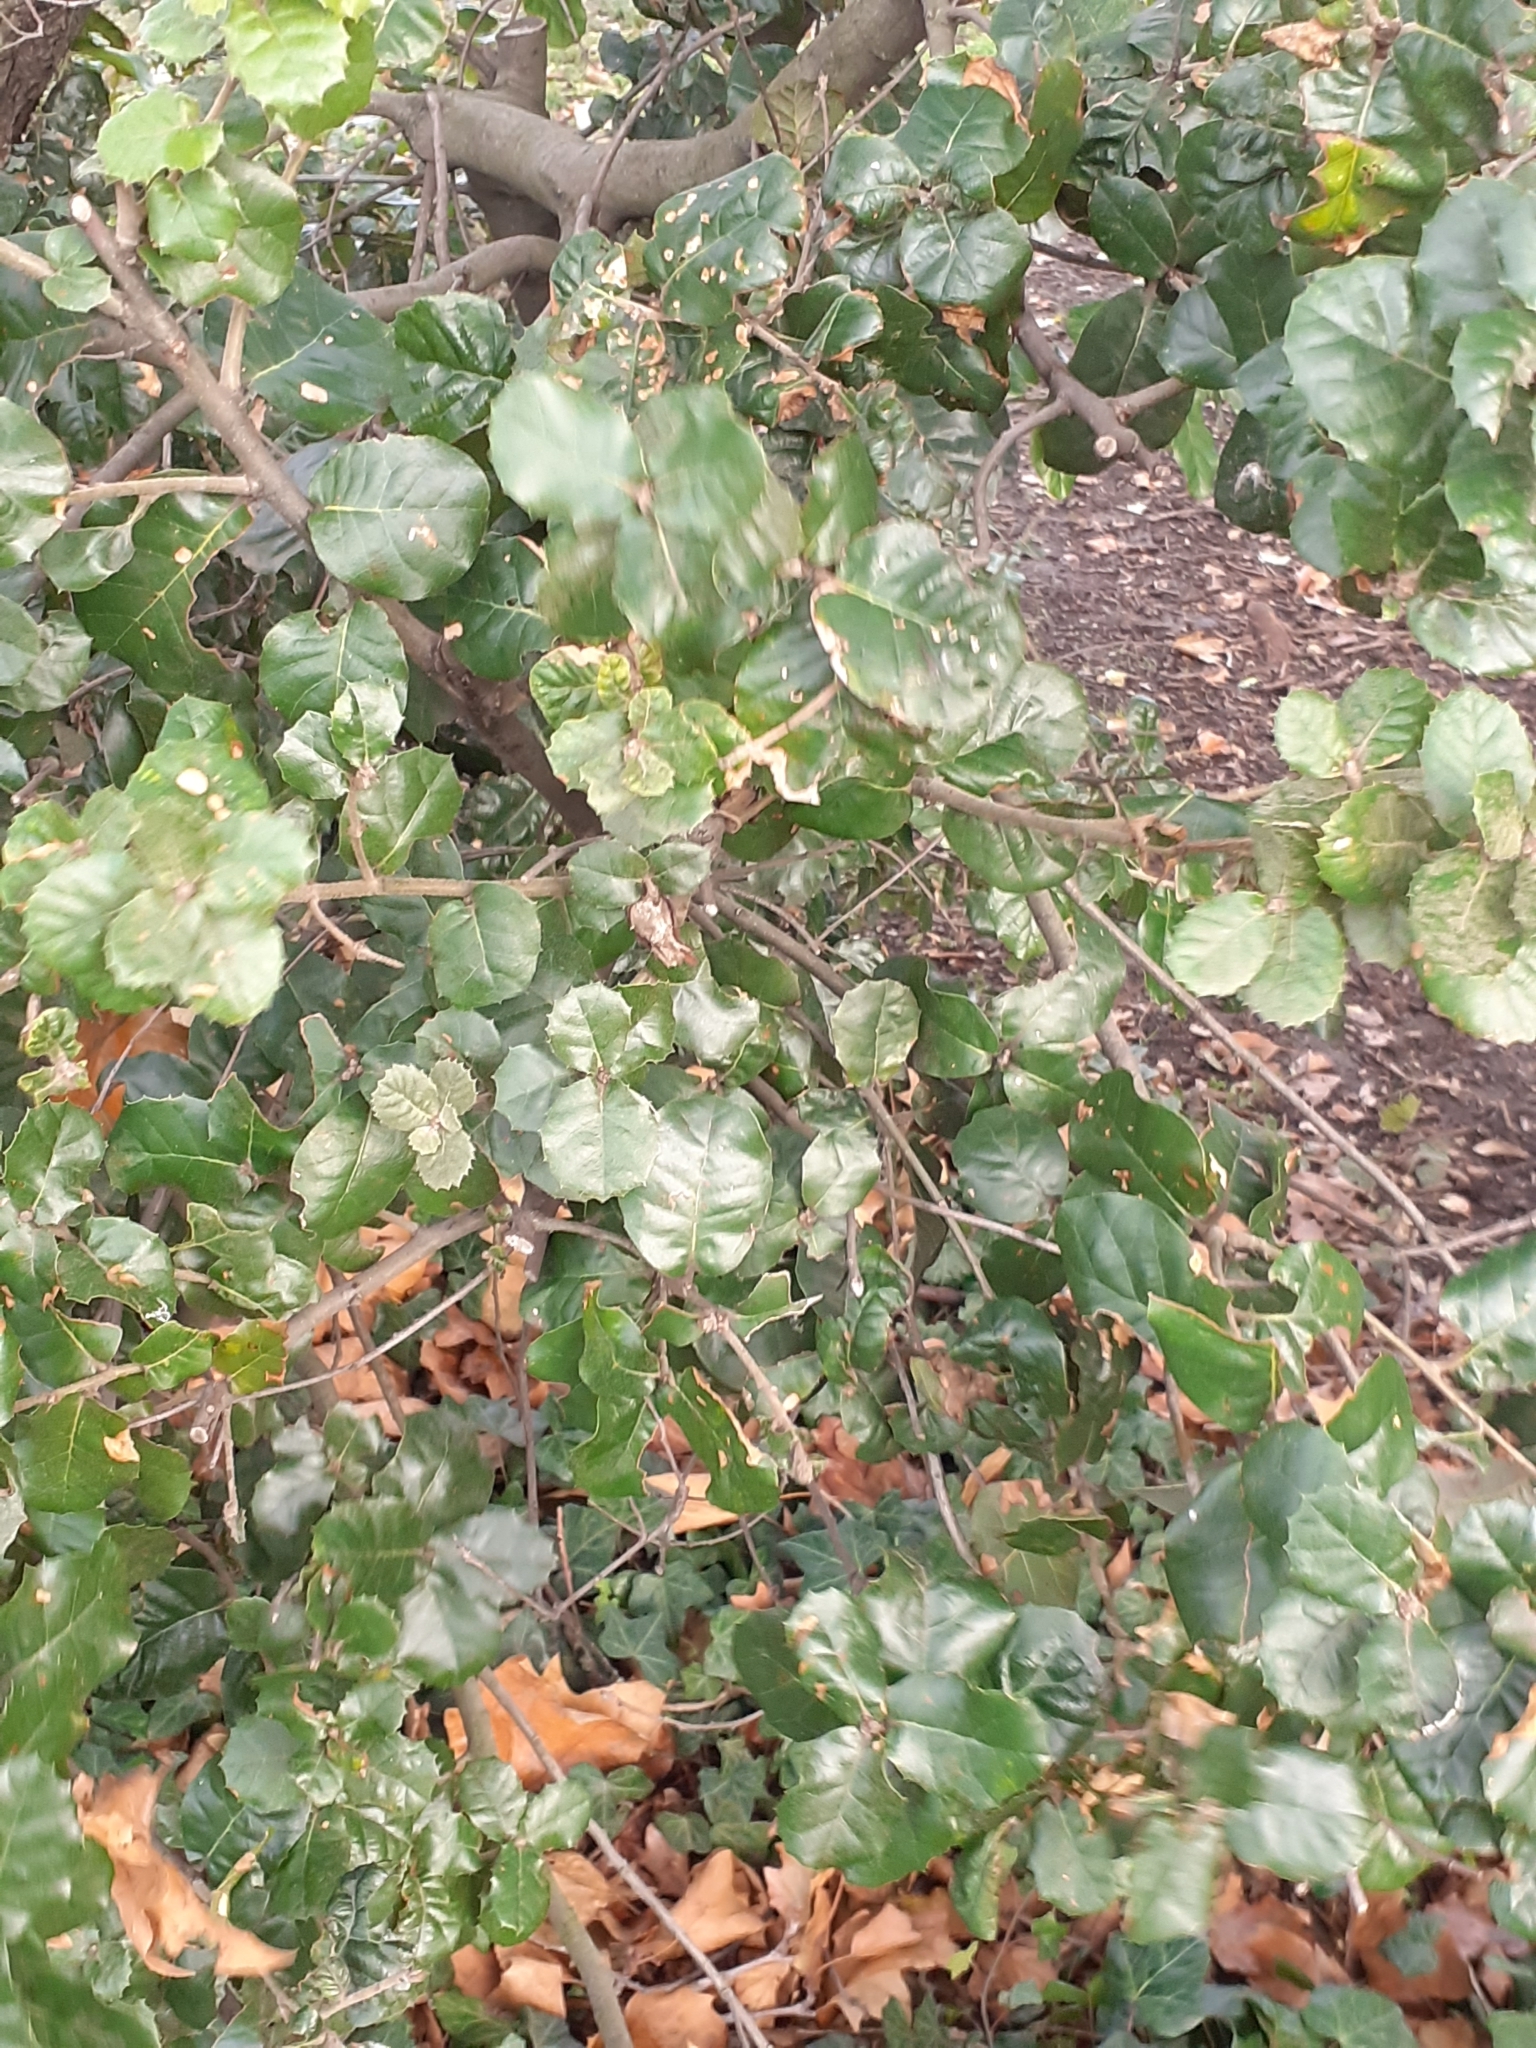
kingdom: Plantae
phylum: Tracheophyta
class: Magnoliopsida
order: Fagales
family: Fagaceae
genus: Quercus
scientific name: Quercus ilex
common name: Evergreen oak
